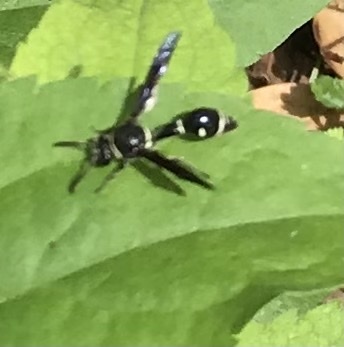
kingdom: Animalia
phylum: Arthropoda
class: Insecta
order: Hymenoptera
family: Vespidae
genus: Eumenes
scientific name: Eumenes fraternus
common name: Fraternal potter wasp
